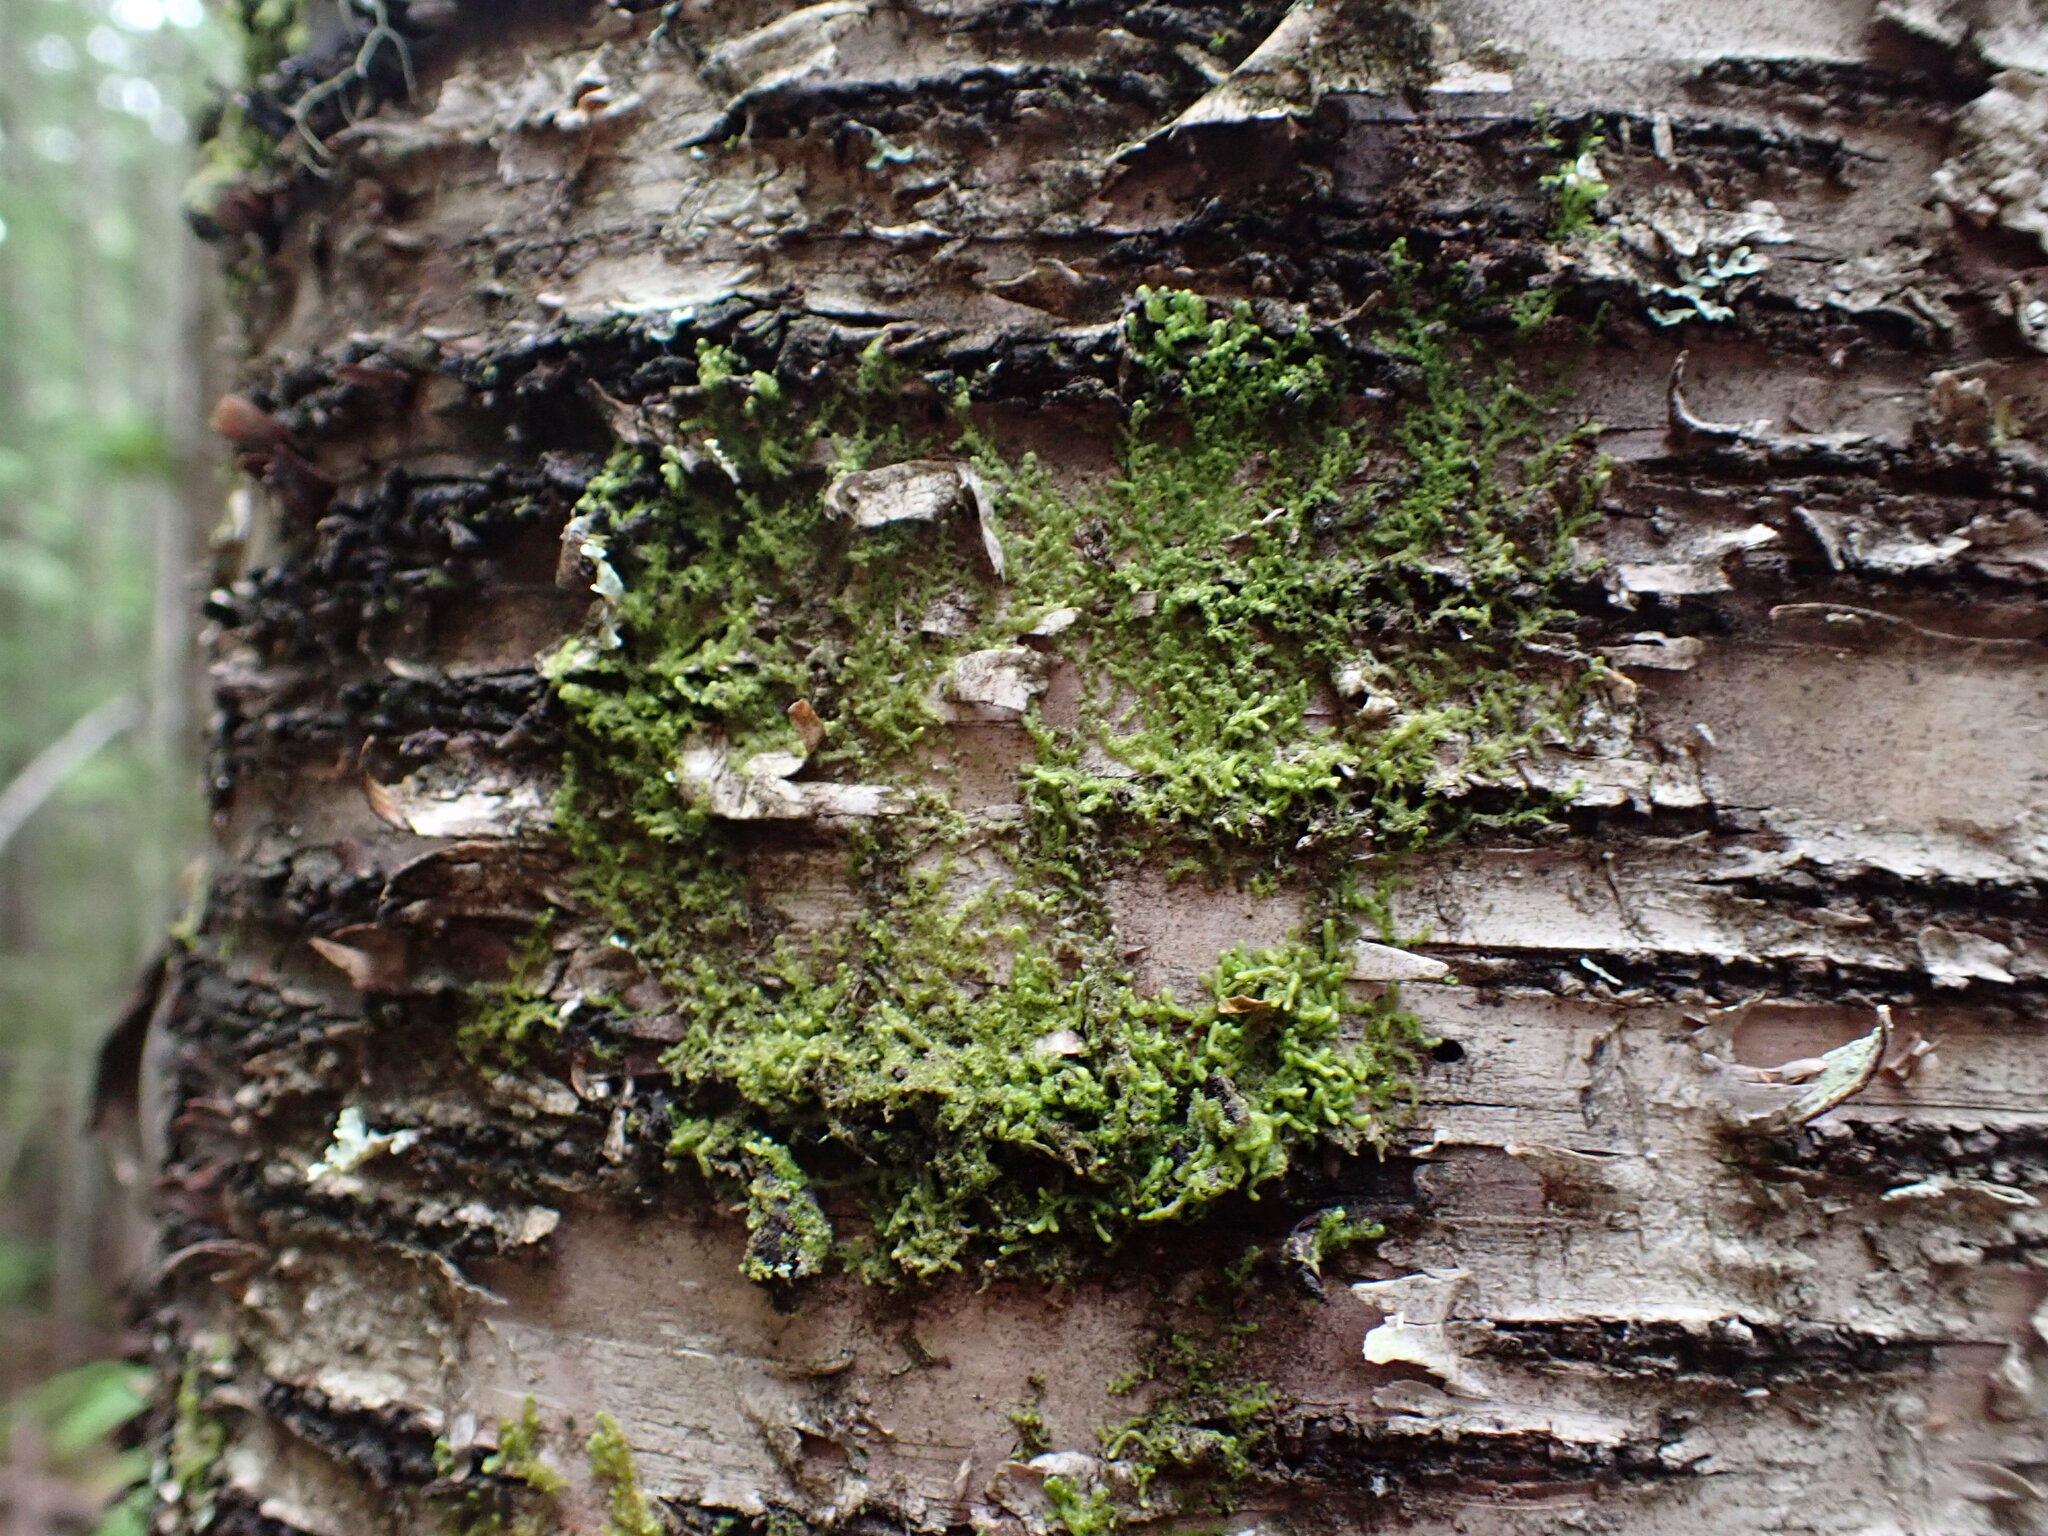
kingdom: Plantae
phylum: Marchantiophyta
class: Jungermanniopsida
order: Ptilidiales
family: Ptilidiaceae
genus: Ptilidium
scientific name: Ptilidium pulcherrimum
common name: Tree fringewort
